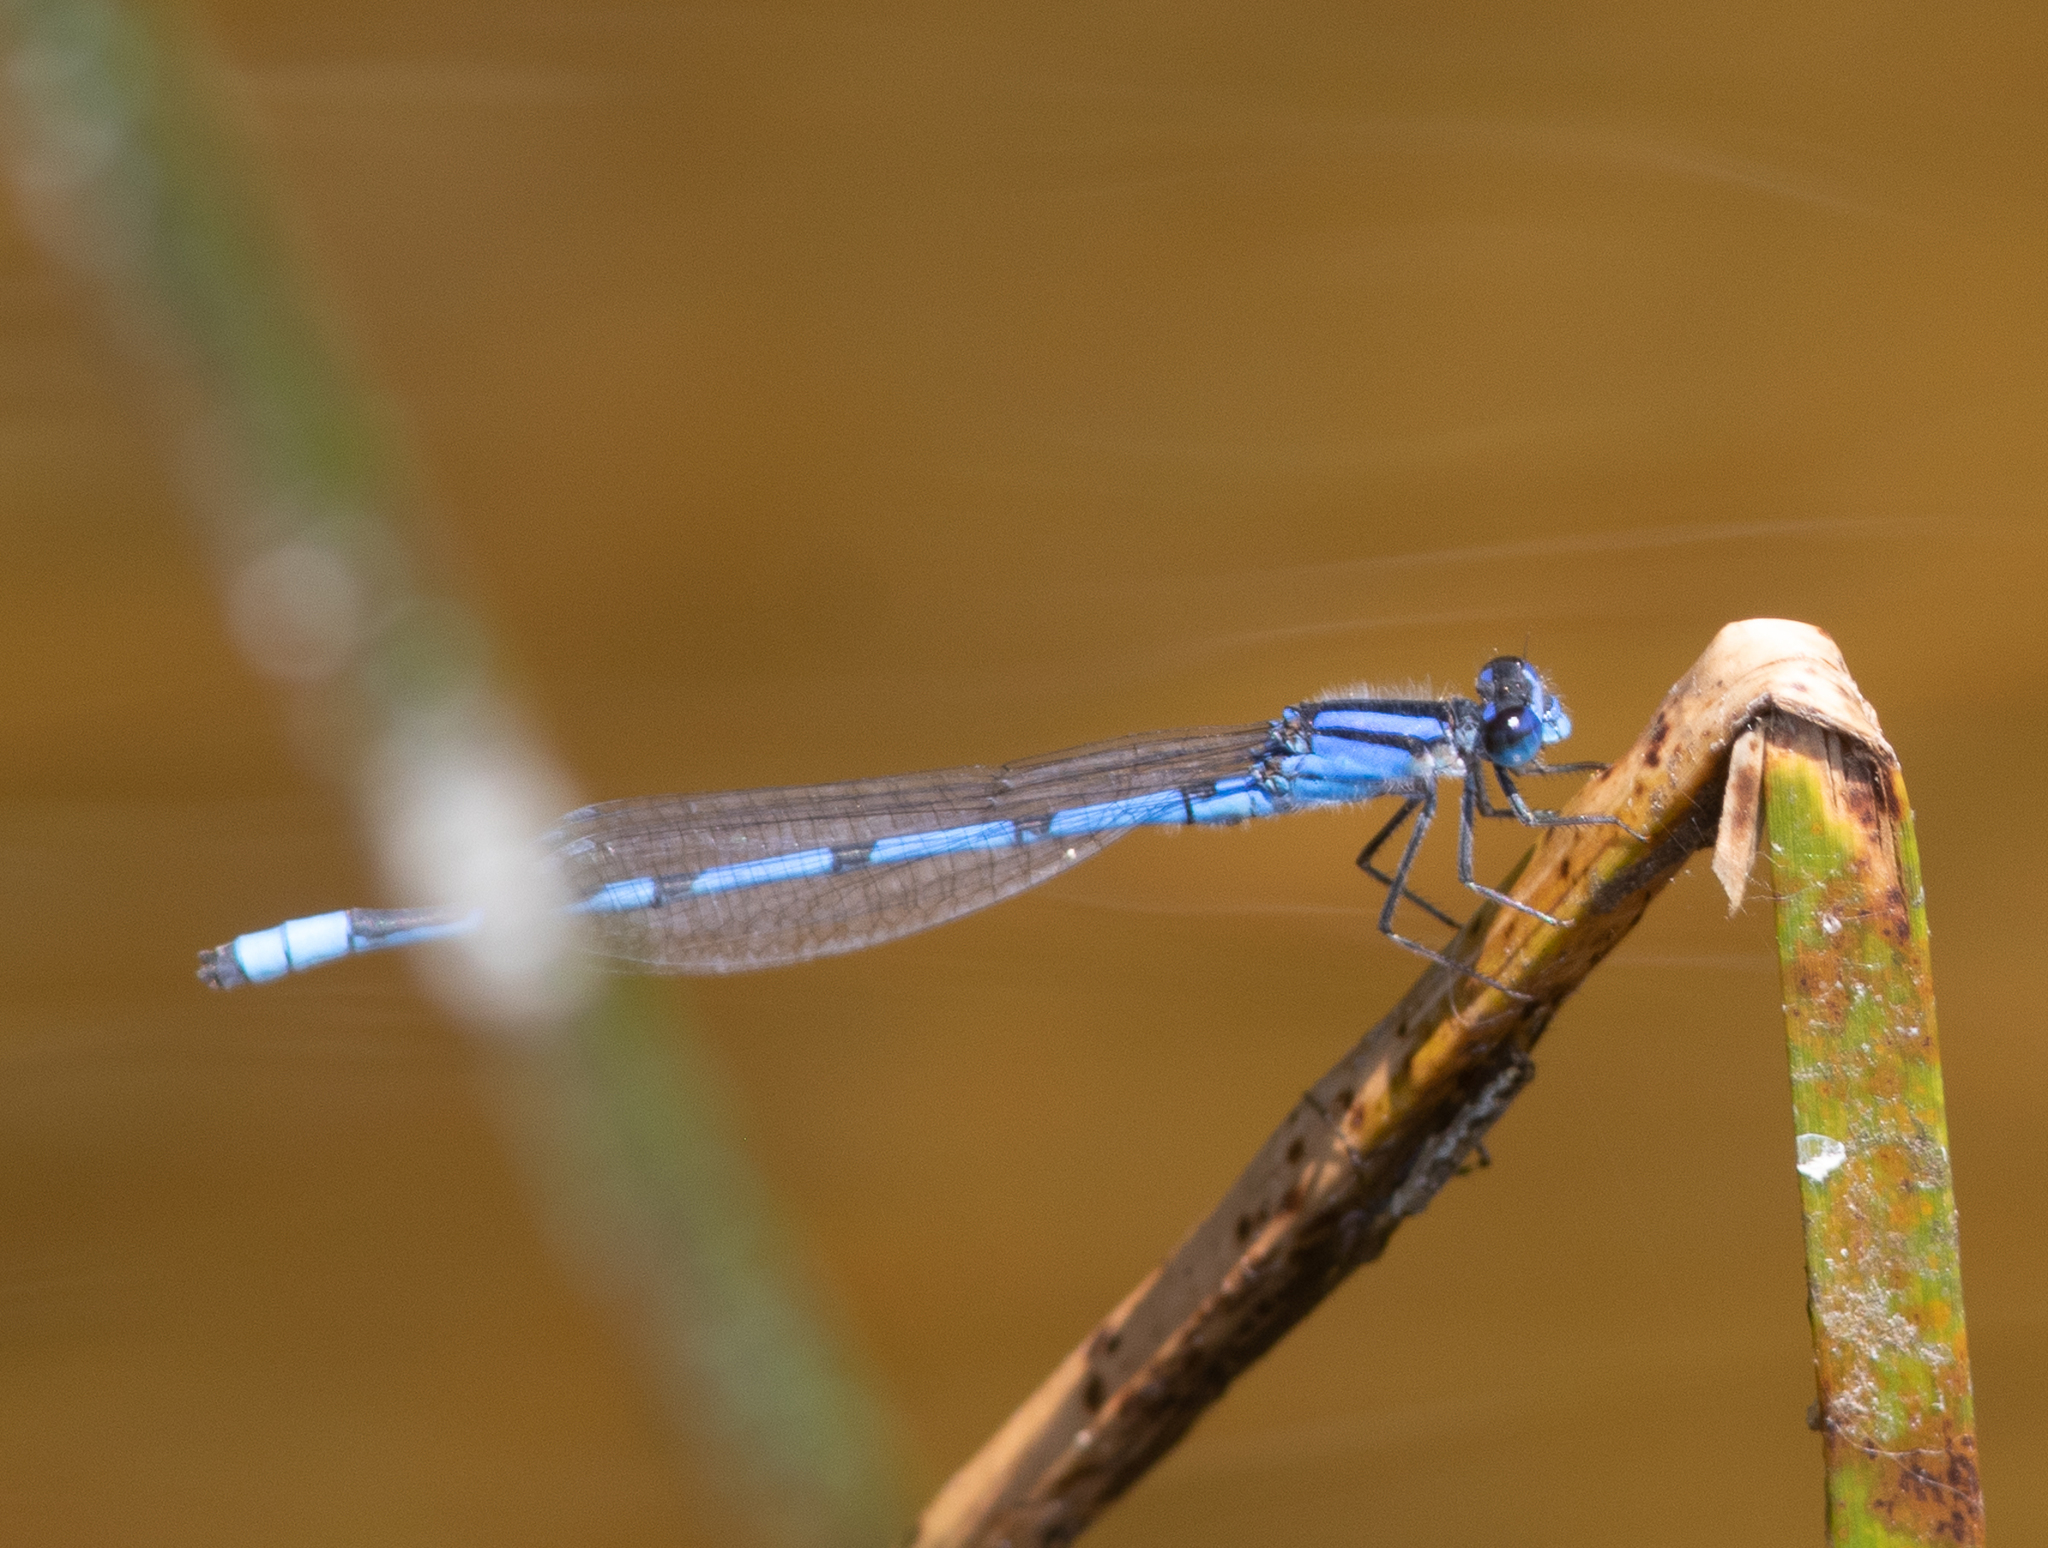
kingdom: Animalia
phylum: Arthropoda
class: Insecta
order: Odonata
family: Coenagrionidae
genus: Enallagma
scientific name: Enallagma civile
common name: Damselfly
